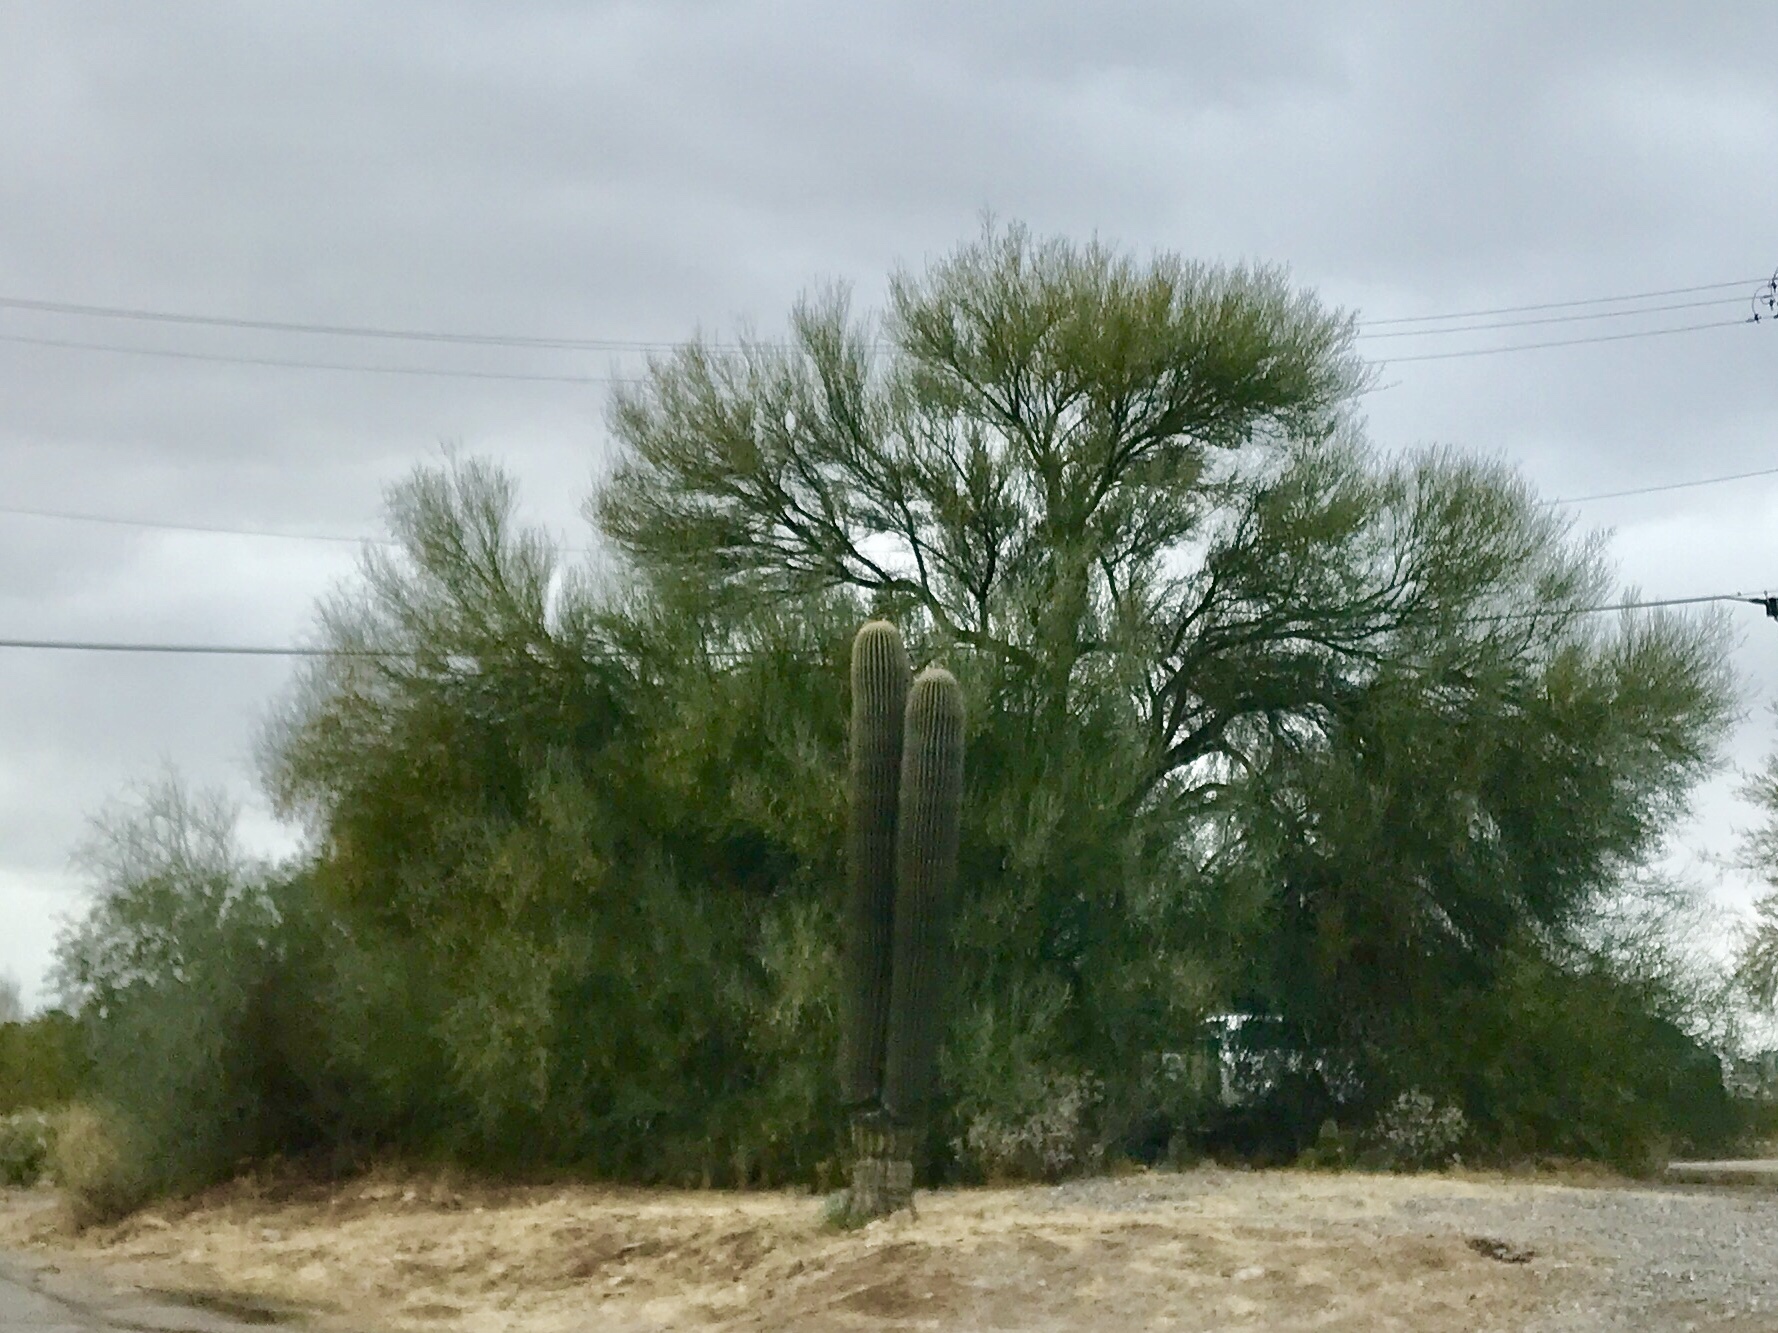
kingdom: Plantae
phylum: Tracheophyta
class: Magnoliopsida
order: Fabales
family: Fabaceae
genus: Parkinsonia
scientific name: Parkinsonia microphylla
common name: Yellow paloverde
